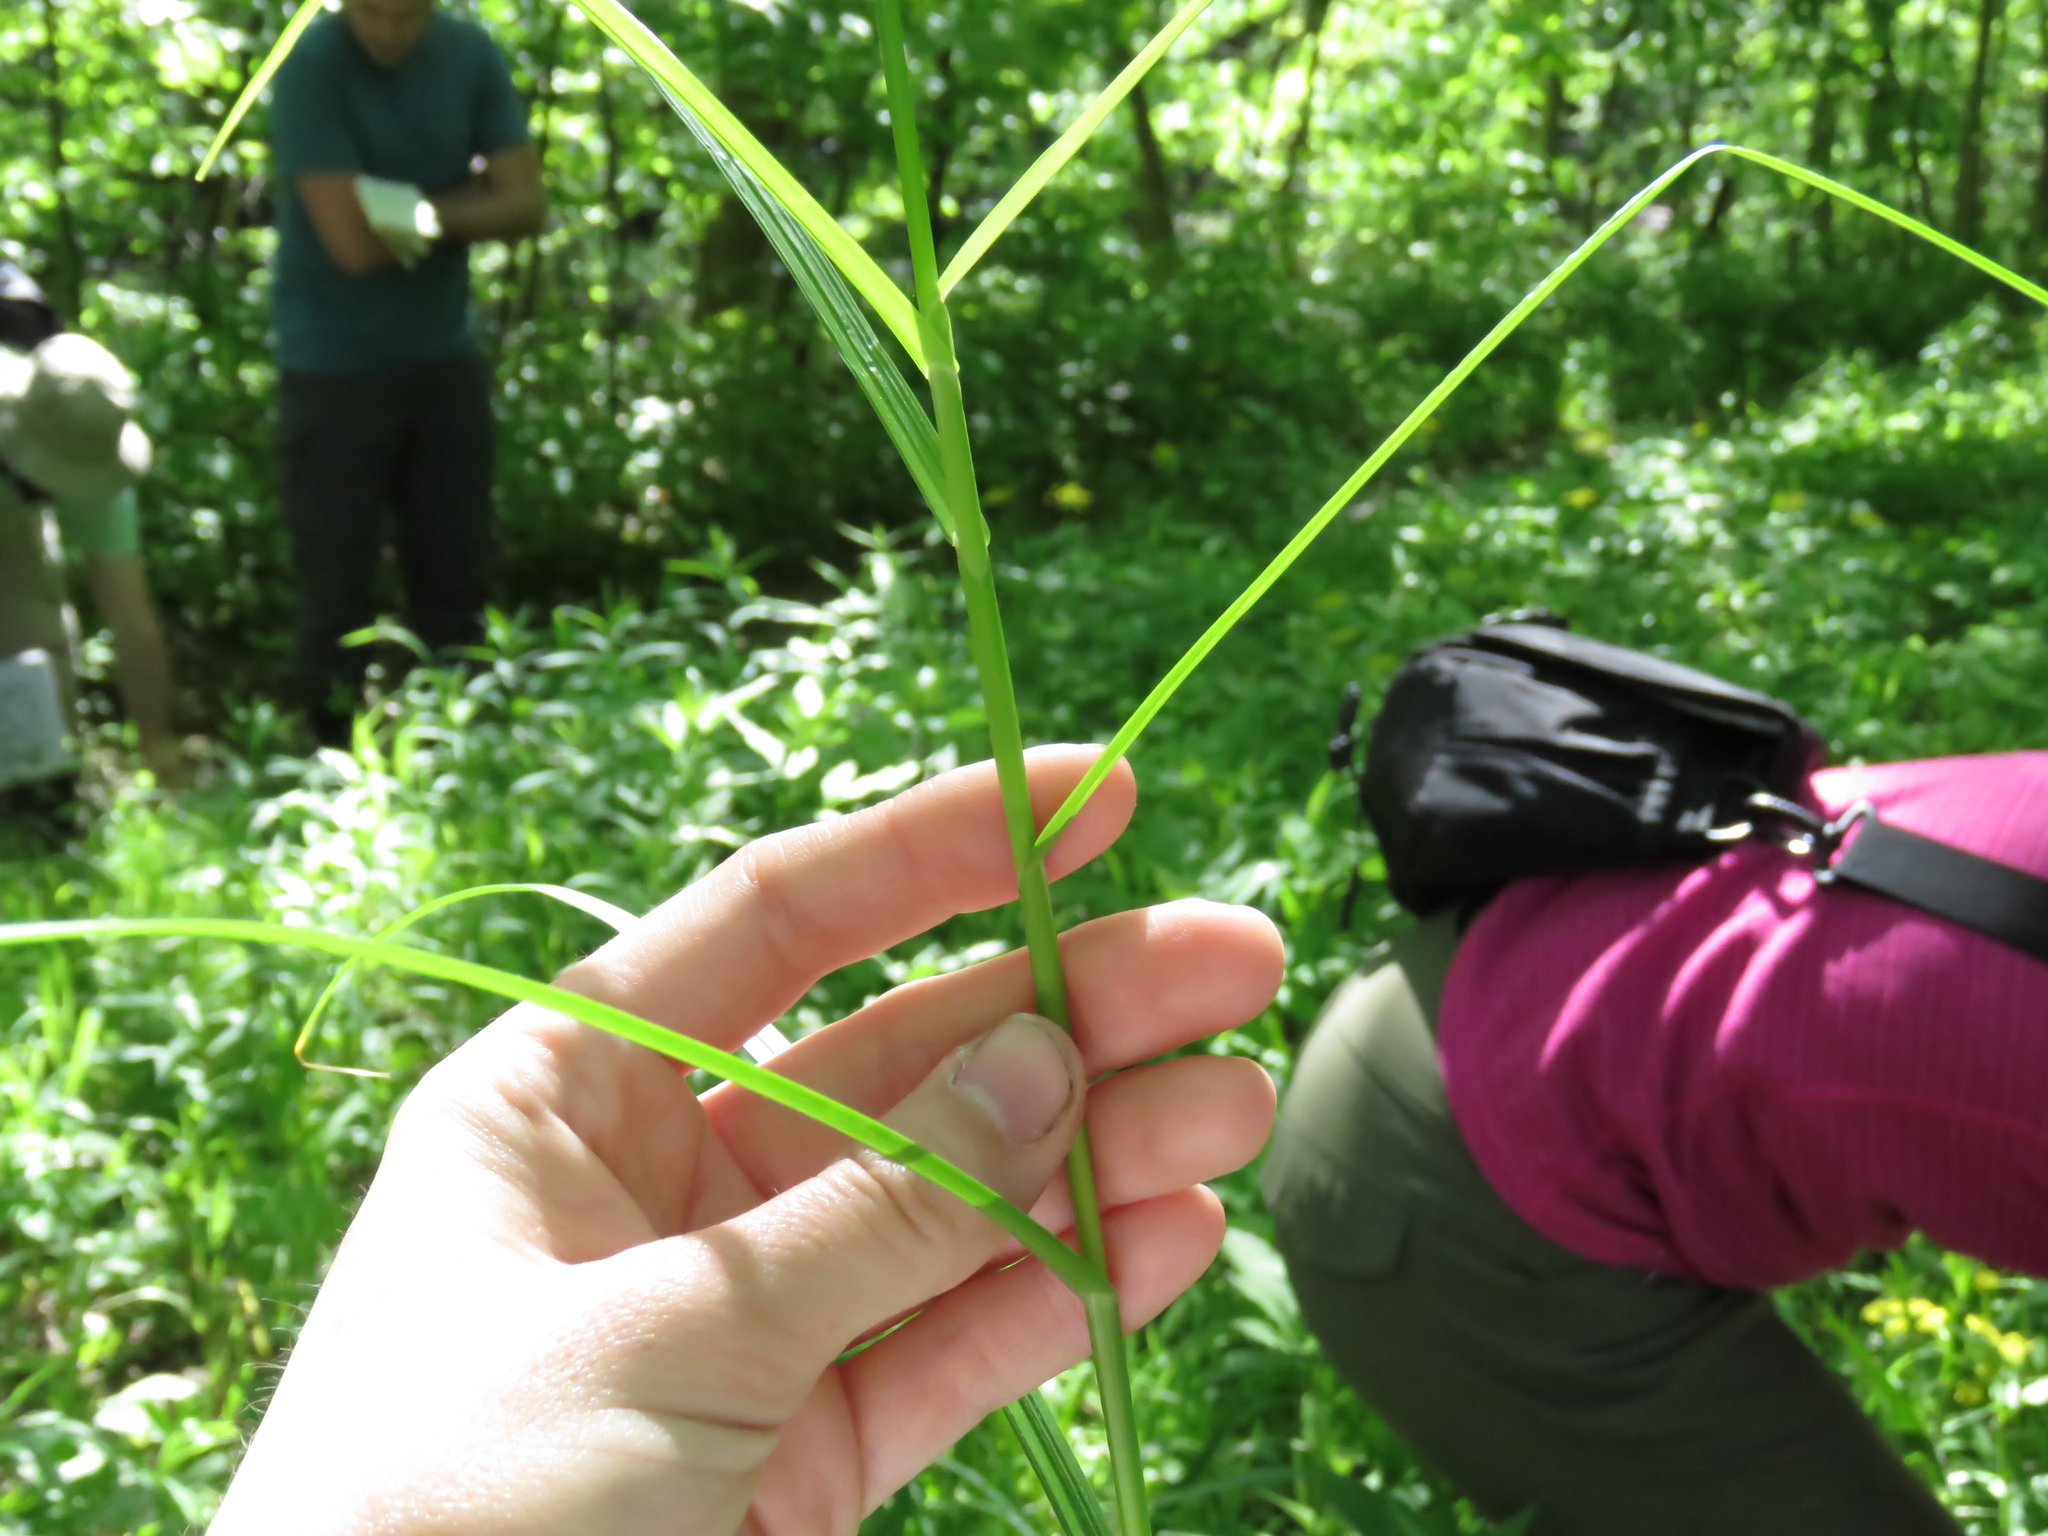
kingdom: Plantae
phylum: Tracheophyta
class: Liliopsida
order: Poales
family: Poaceae
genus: Glyceria
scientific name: Glyceria striata
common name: Fowl manna grass
